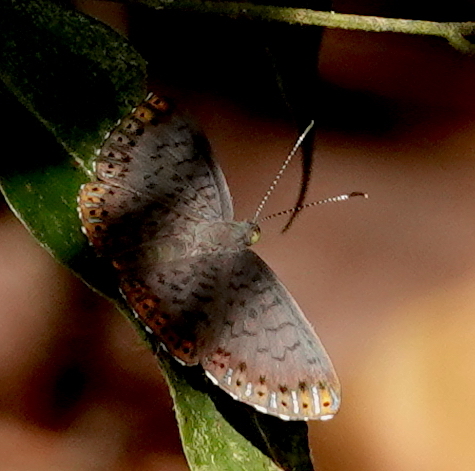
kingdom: Animalia
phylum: Arthropoda
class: Insecta
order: Lepidoptera
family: Riodinidae
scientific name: Riodinidae
